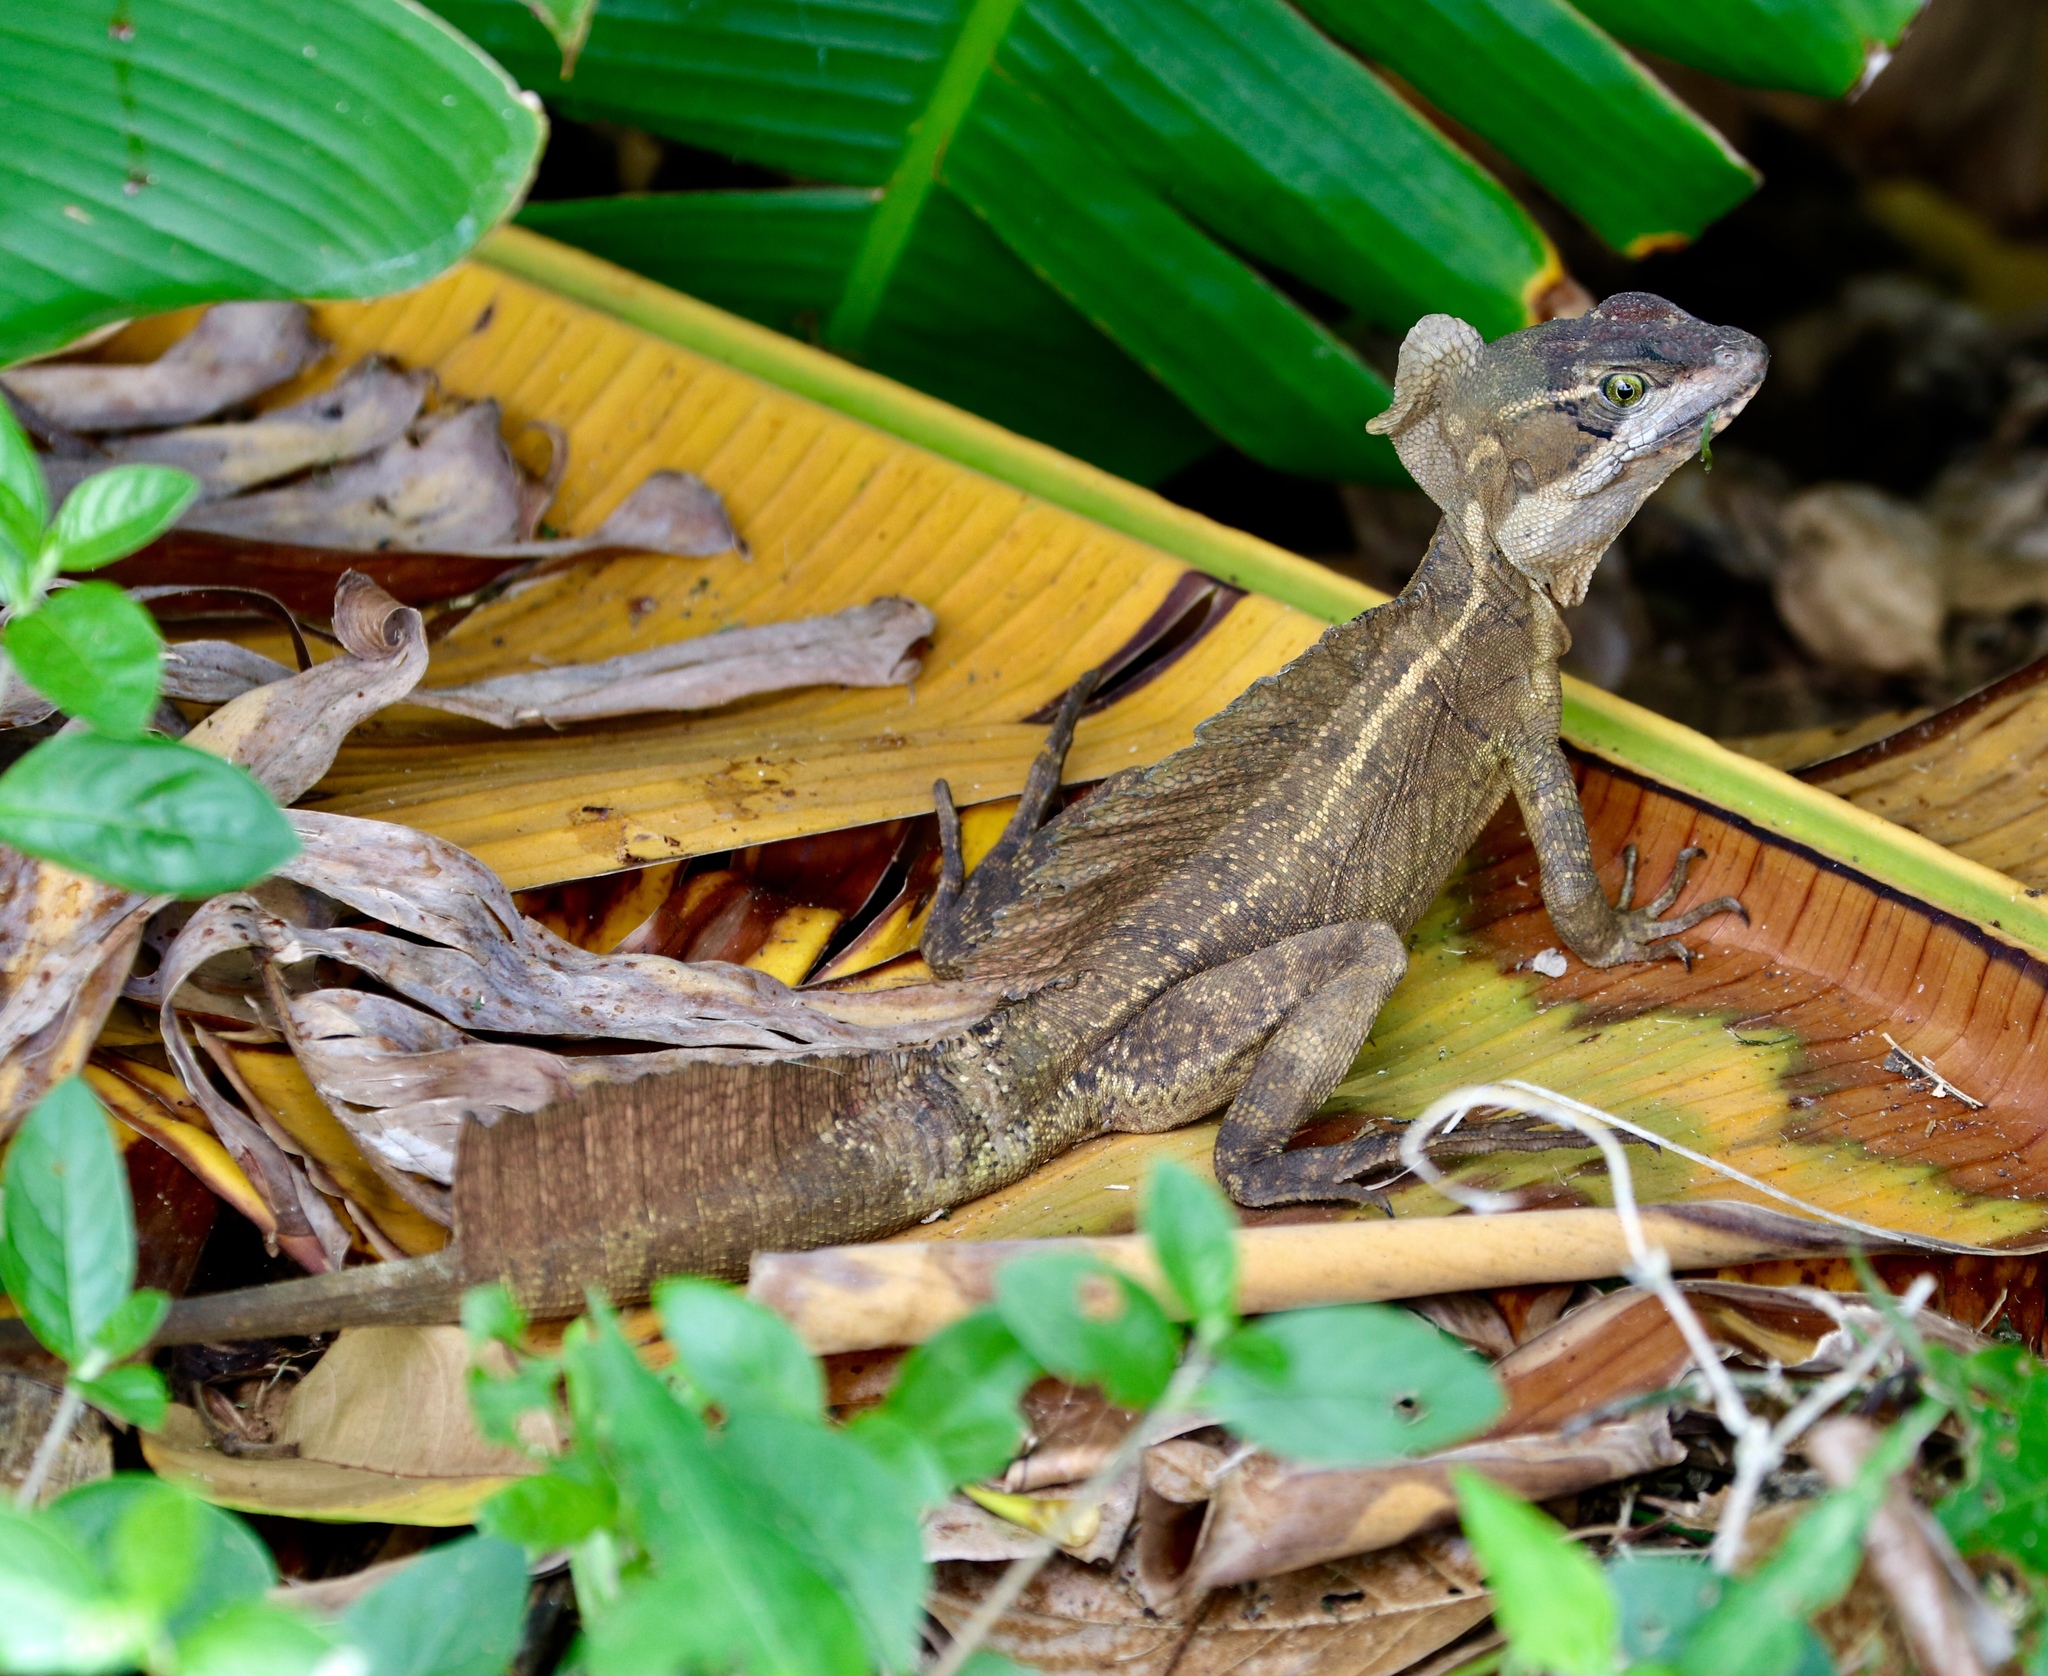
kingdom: Animalia
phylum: Chordata
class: Squamata
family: Corytophanidae
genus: Basiliscus
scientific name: Basiliscus basiliscus
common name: Common basilisk
